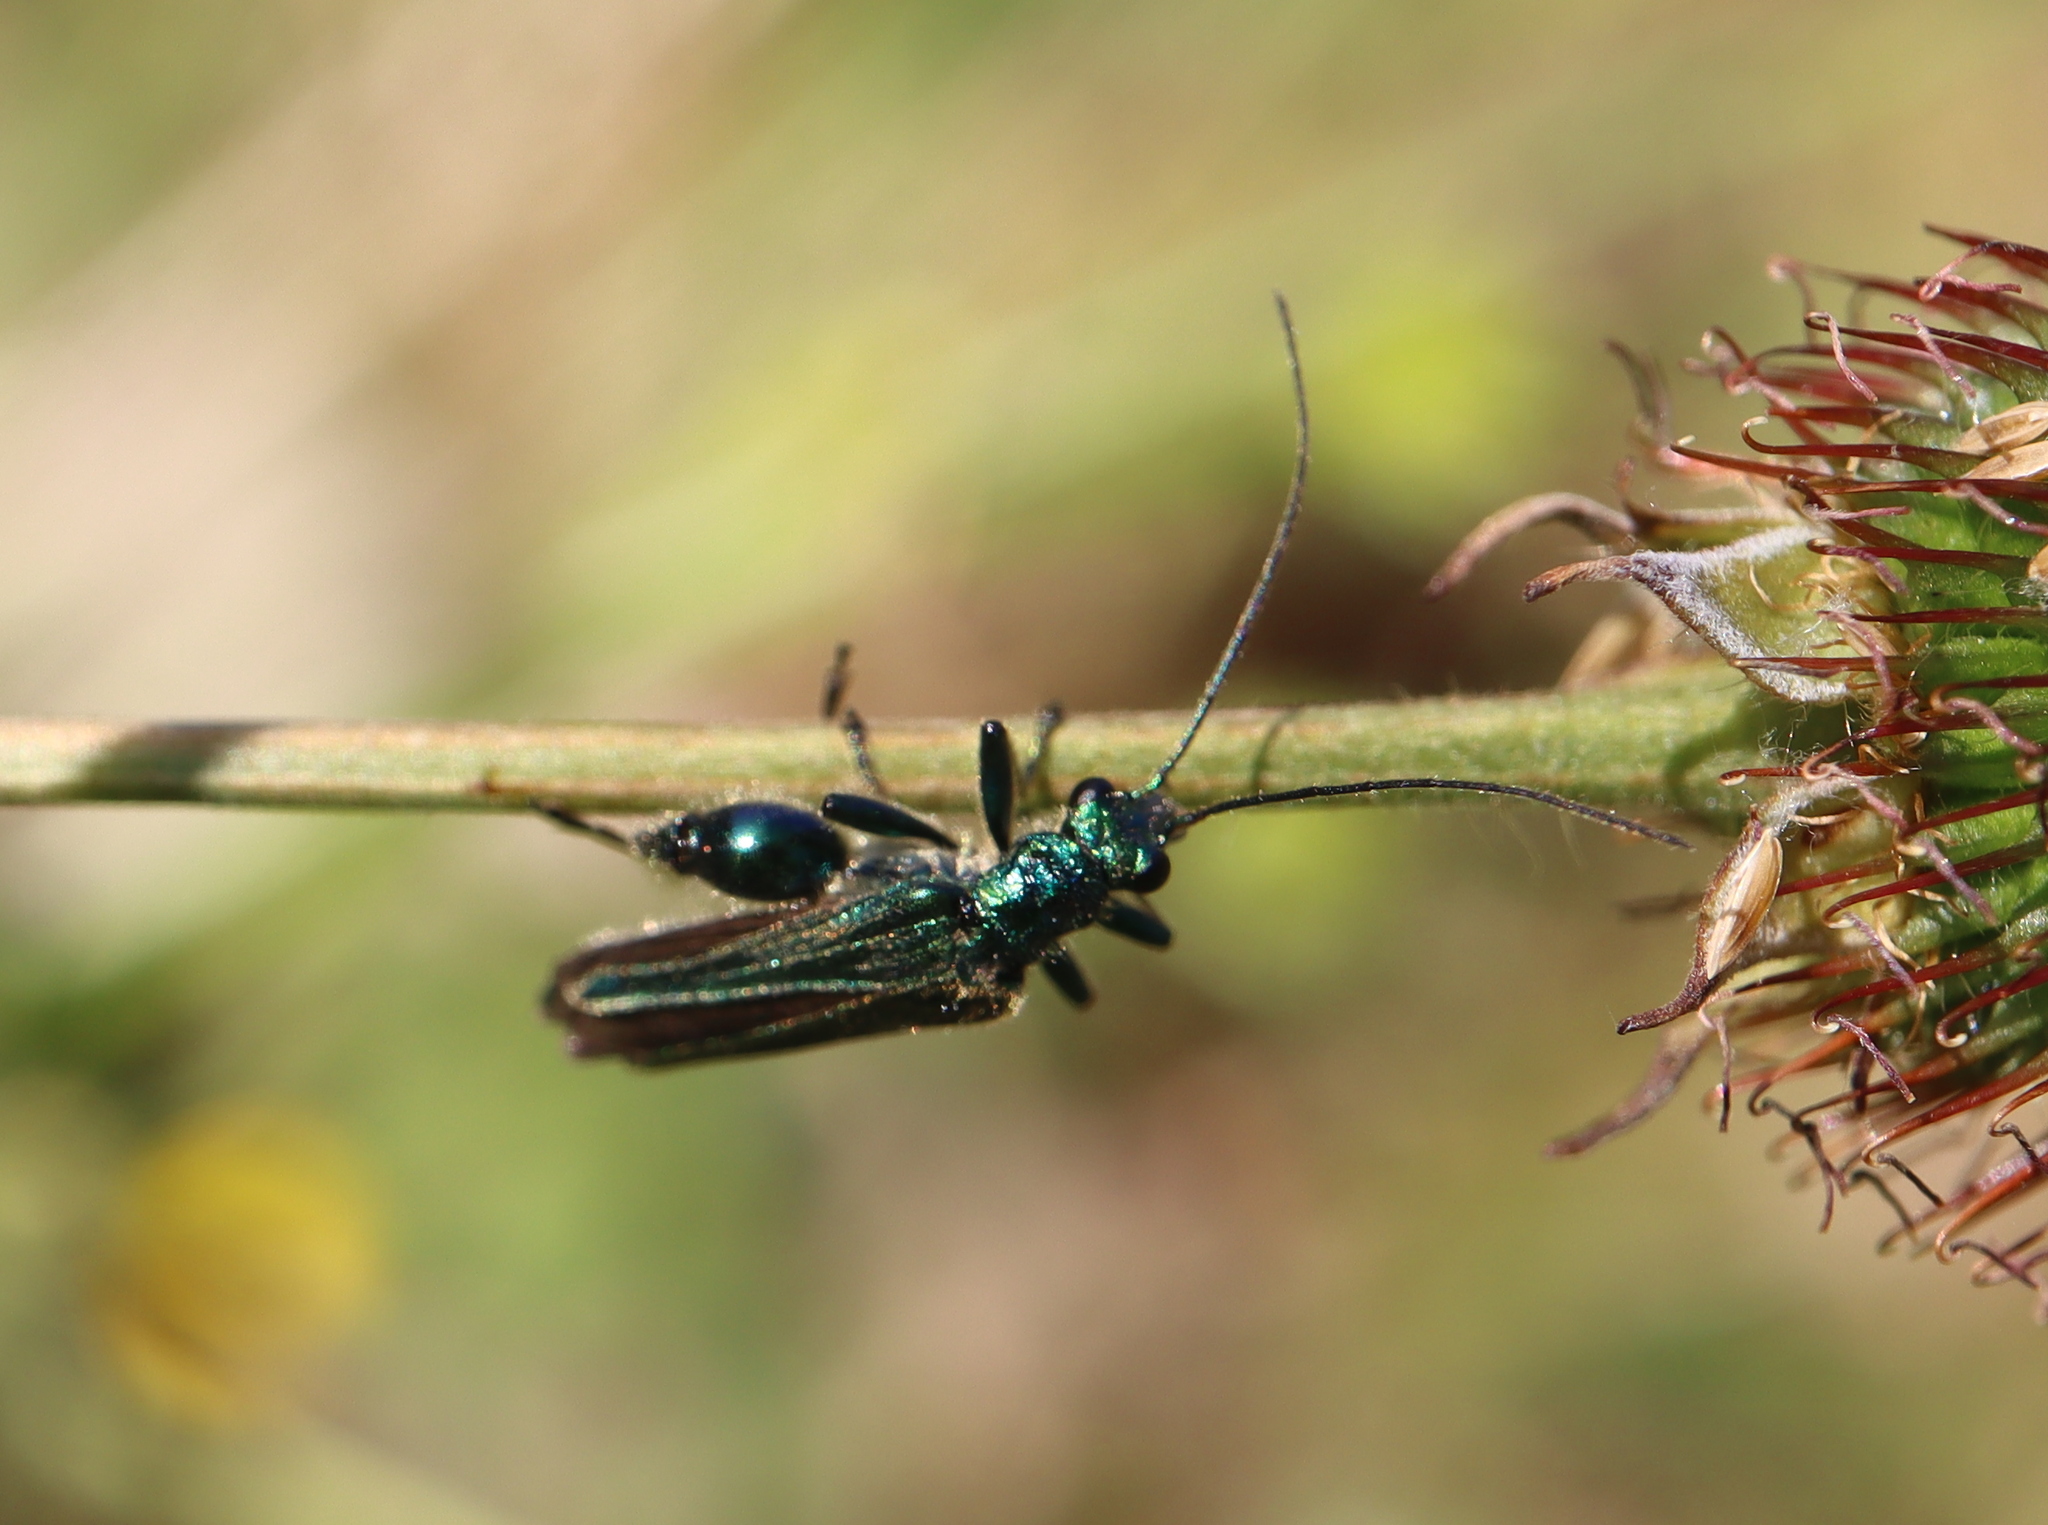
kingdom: Animalia
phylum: Arthropoda
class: Insecta
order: Coleoptera
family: Oedemeridae
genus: Oedemera
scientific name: Oedemera nobilis
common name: Swollen-thighed beetle
